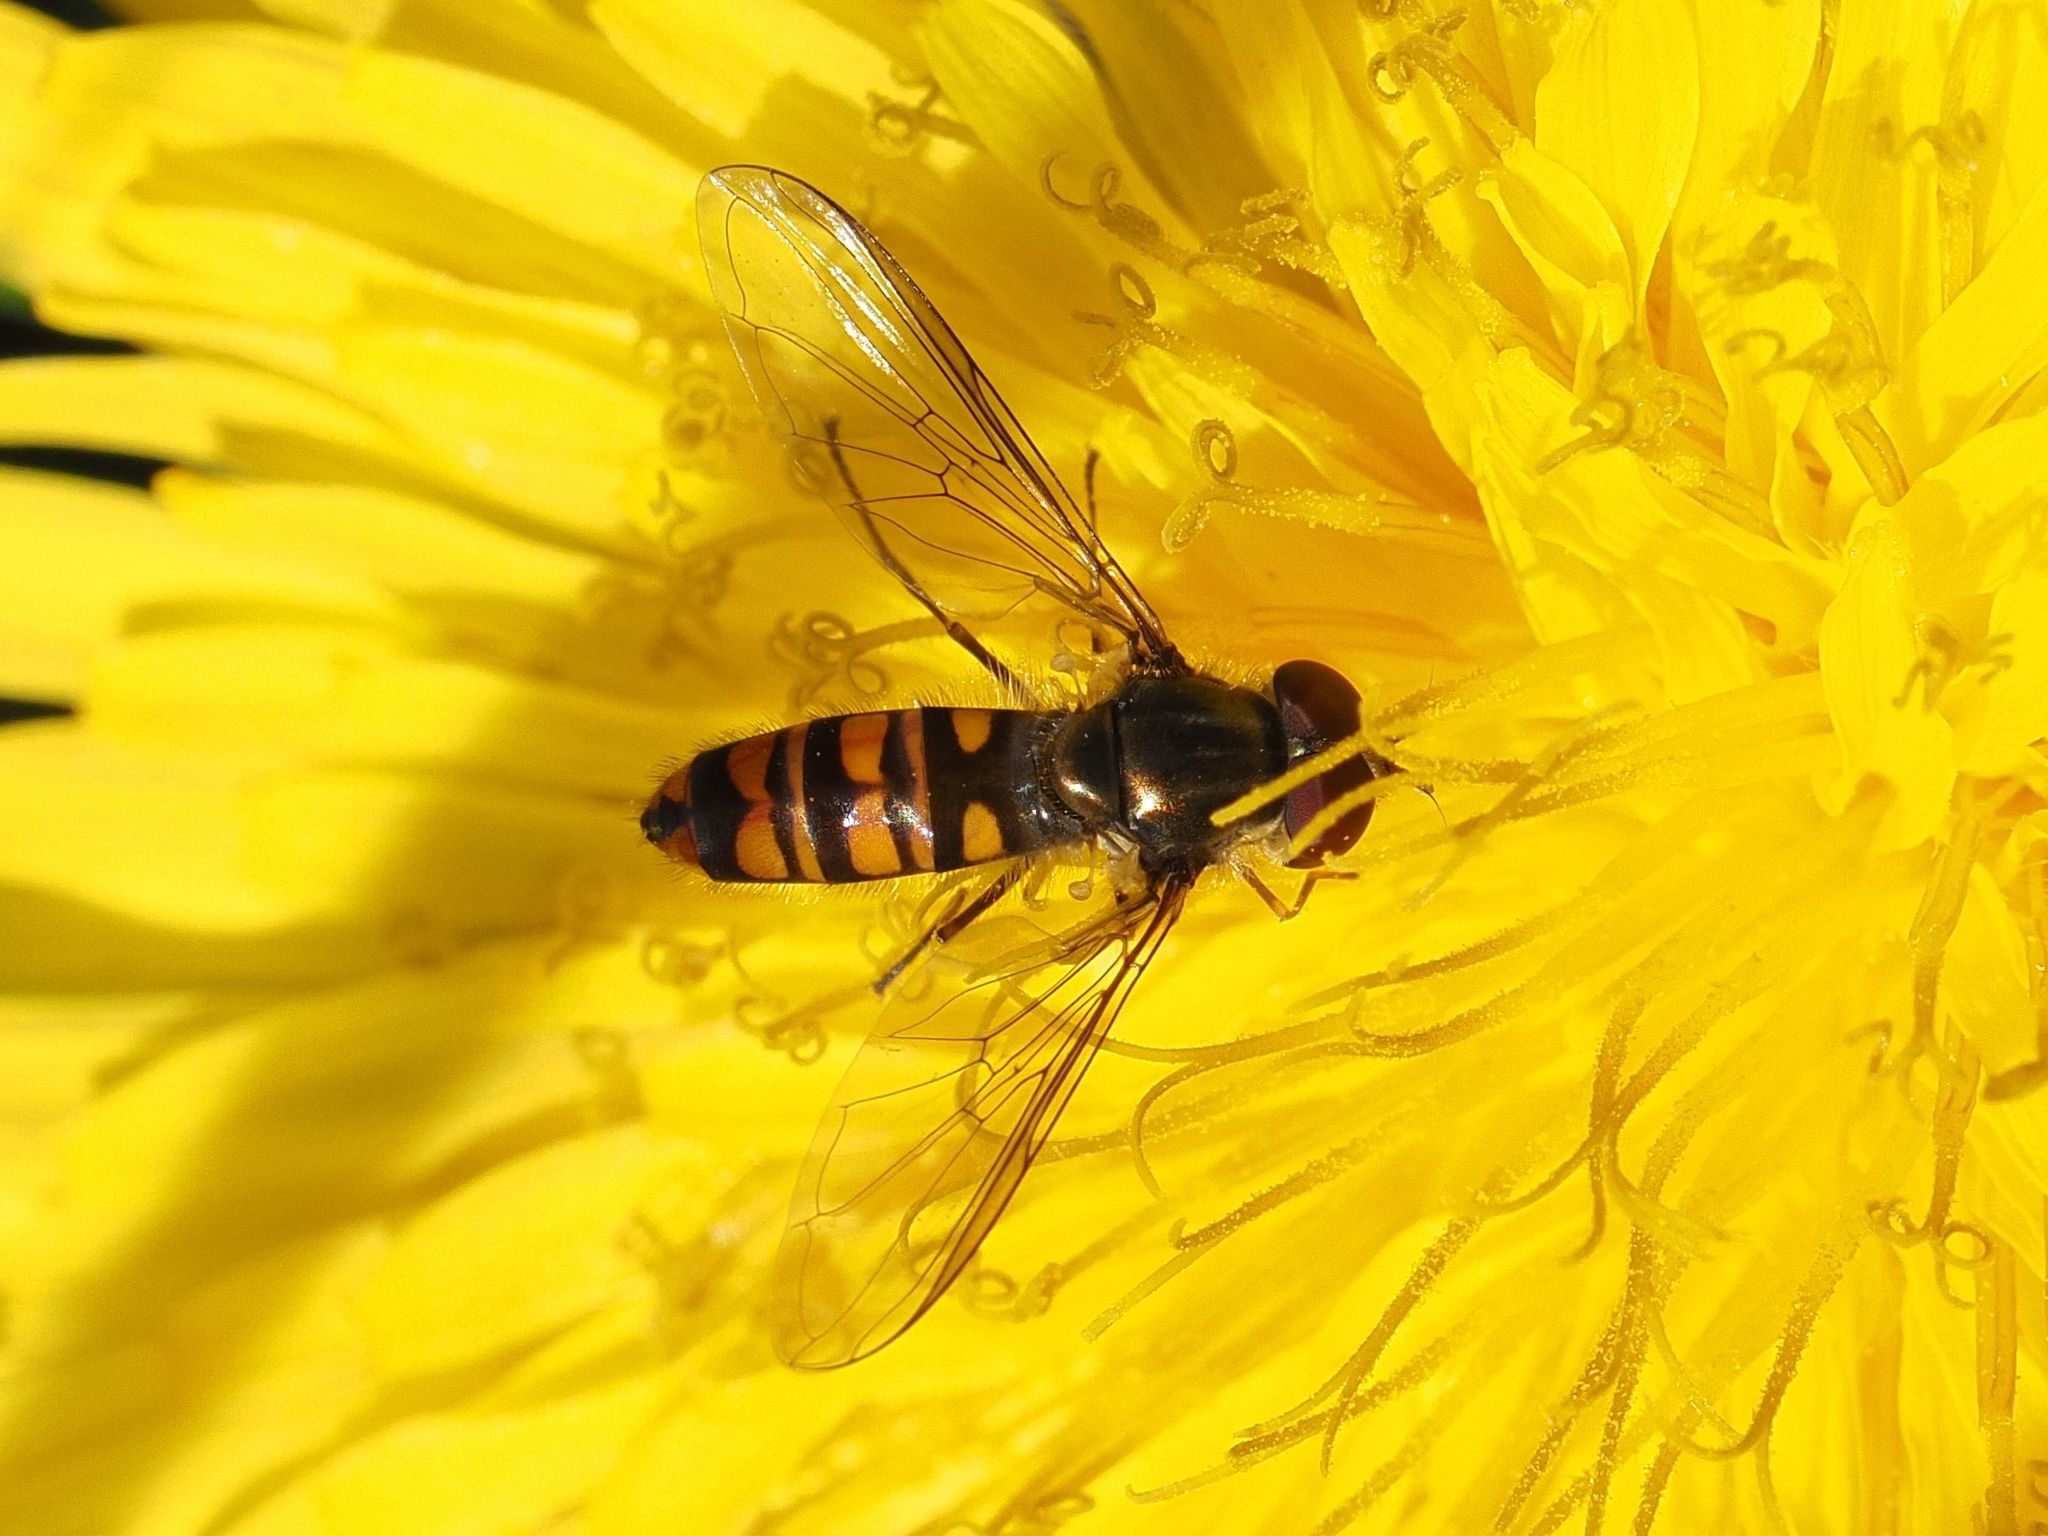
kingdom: Animalia
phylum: Arthropoda
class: Insecta
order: Diptera
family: Syrphidae
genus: Episyrphus
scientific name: Episyrphus balteatus
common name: Marmalade hoverfly
